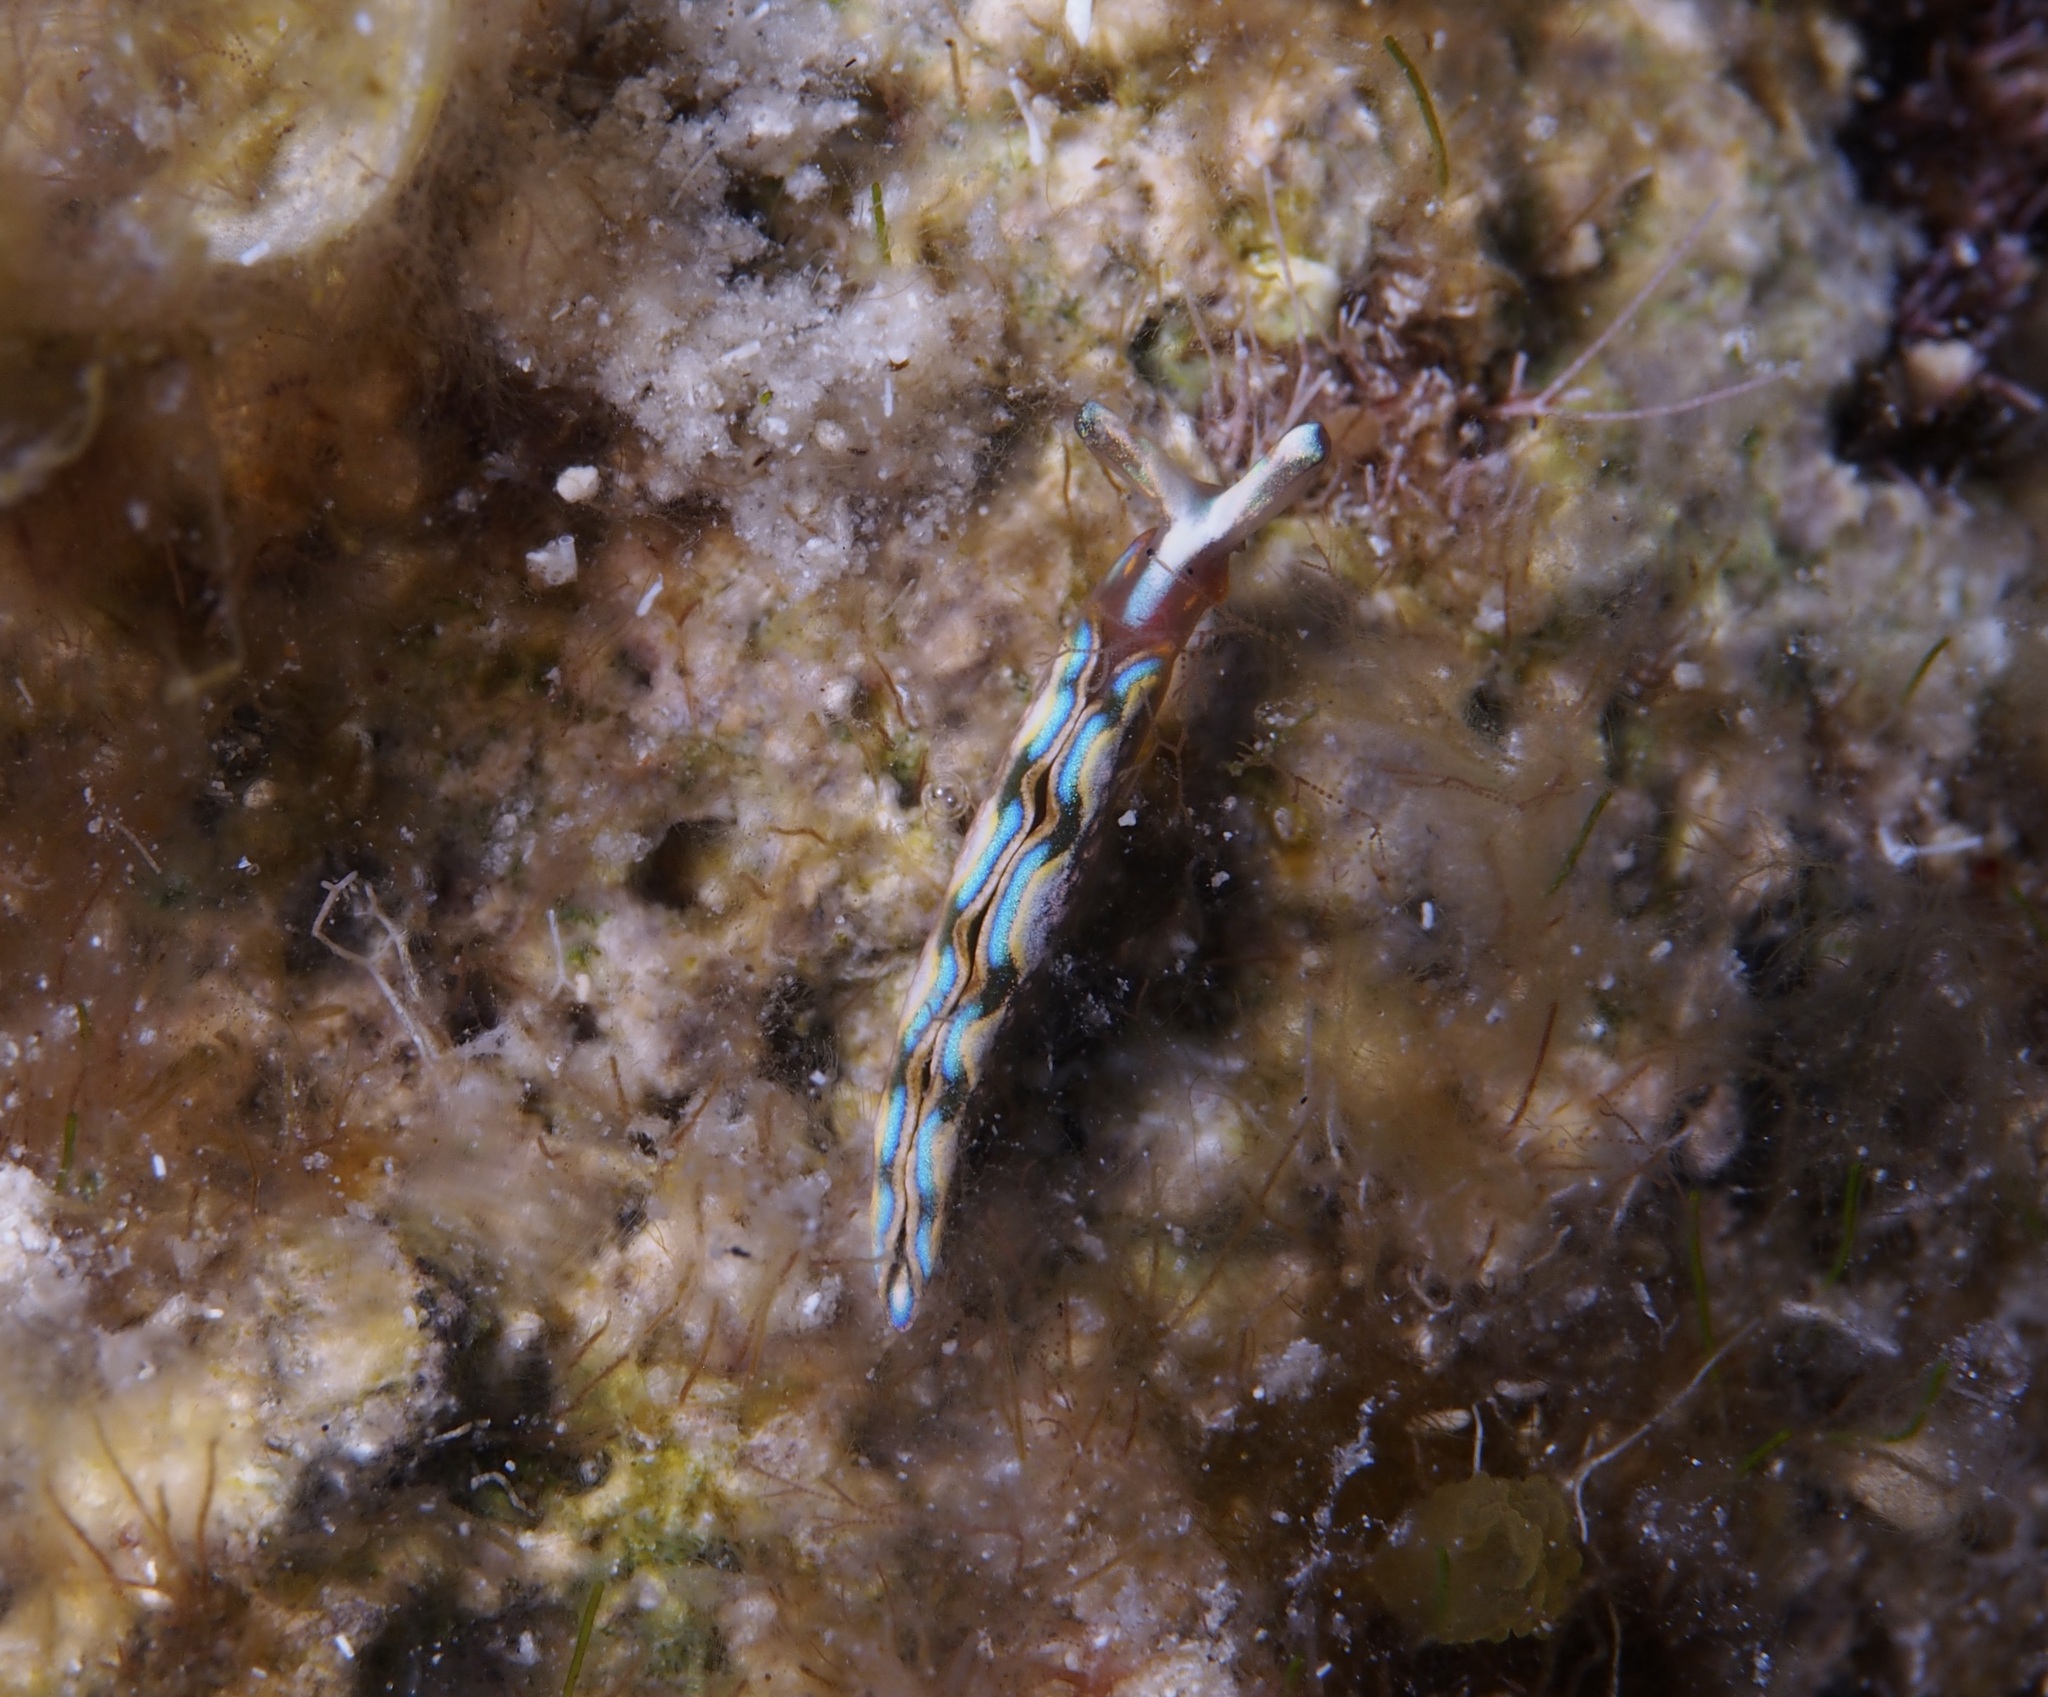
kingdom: Animalia
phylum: Mollusca
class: Gastropoda
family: Plakobranchidae
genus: Thuridilla
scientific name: Thuridilla hopei
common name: Splendid elysia
